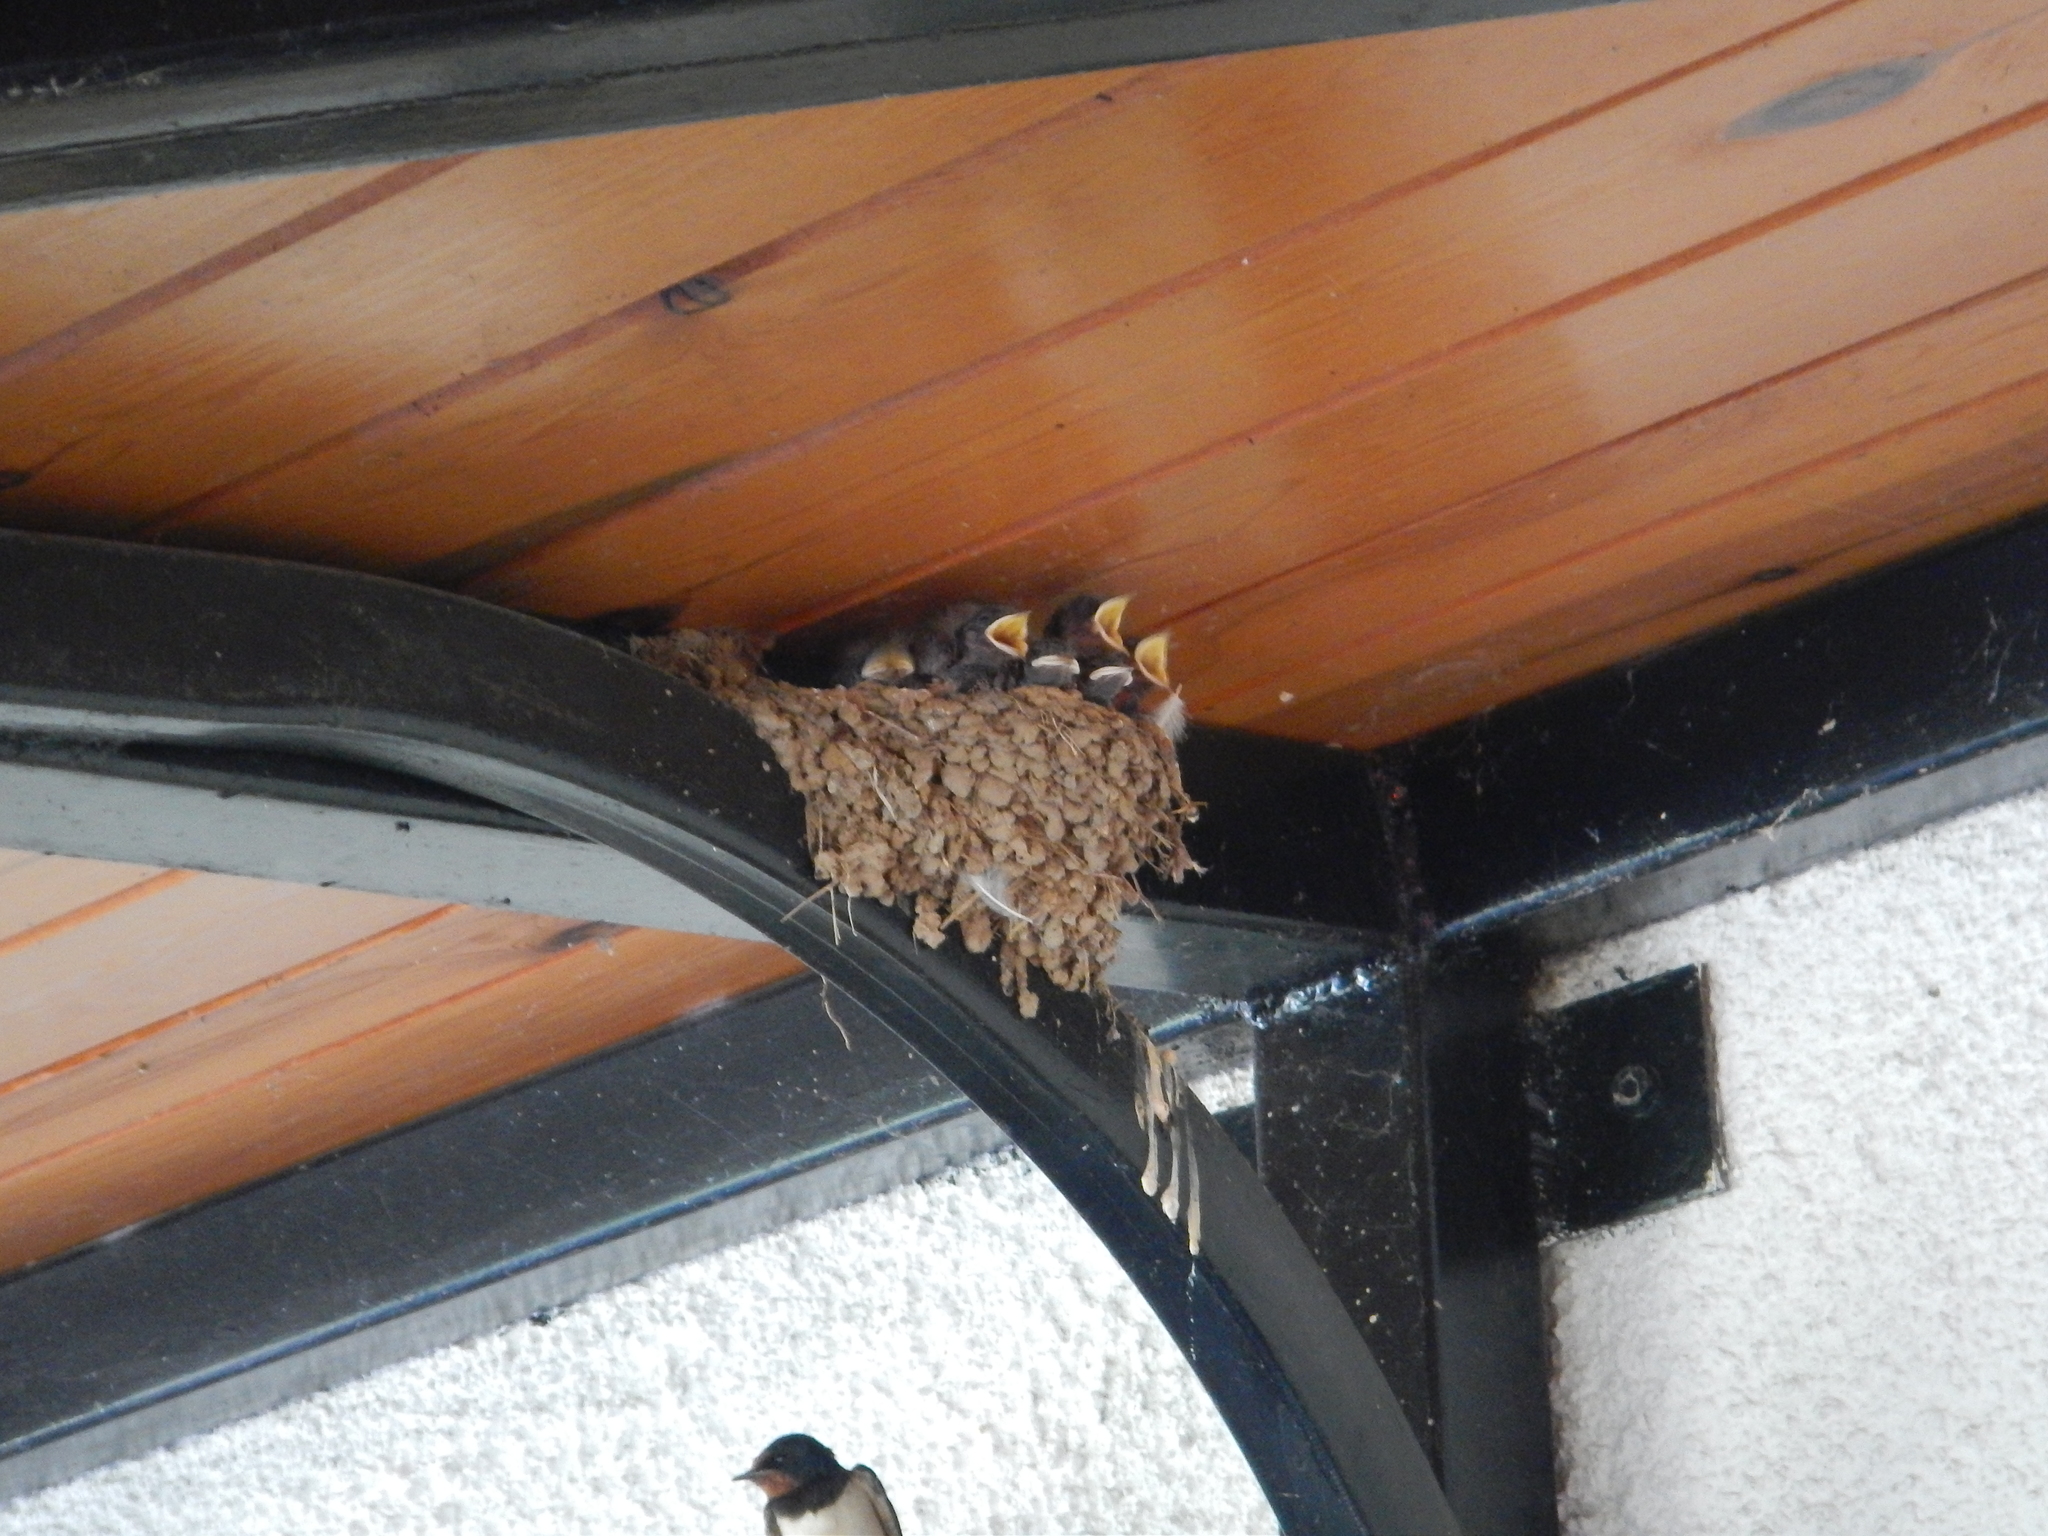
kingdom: Animalia
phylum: Chordata
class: Aves
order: Passeriformes
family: Hirundinidae
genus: Hirundo
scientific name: Hirundo rustica
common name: Barn swallow
